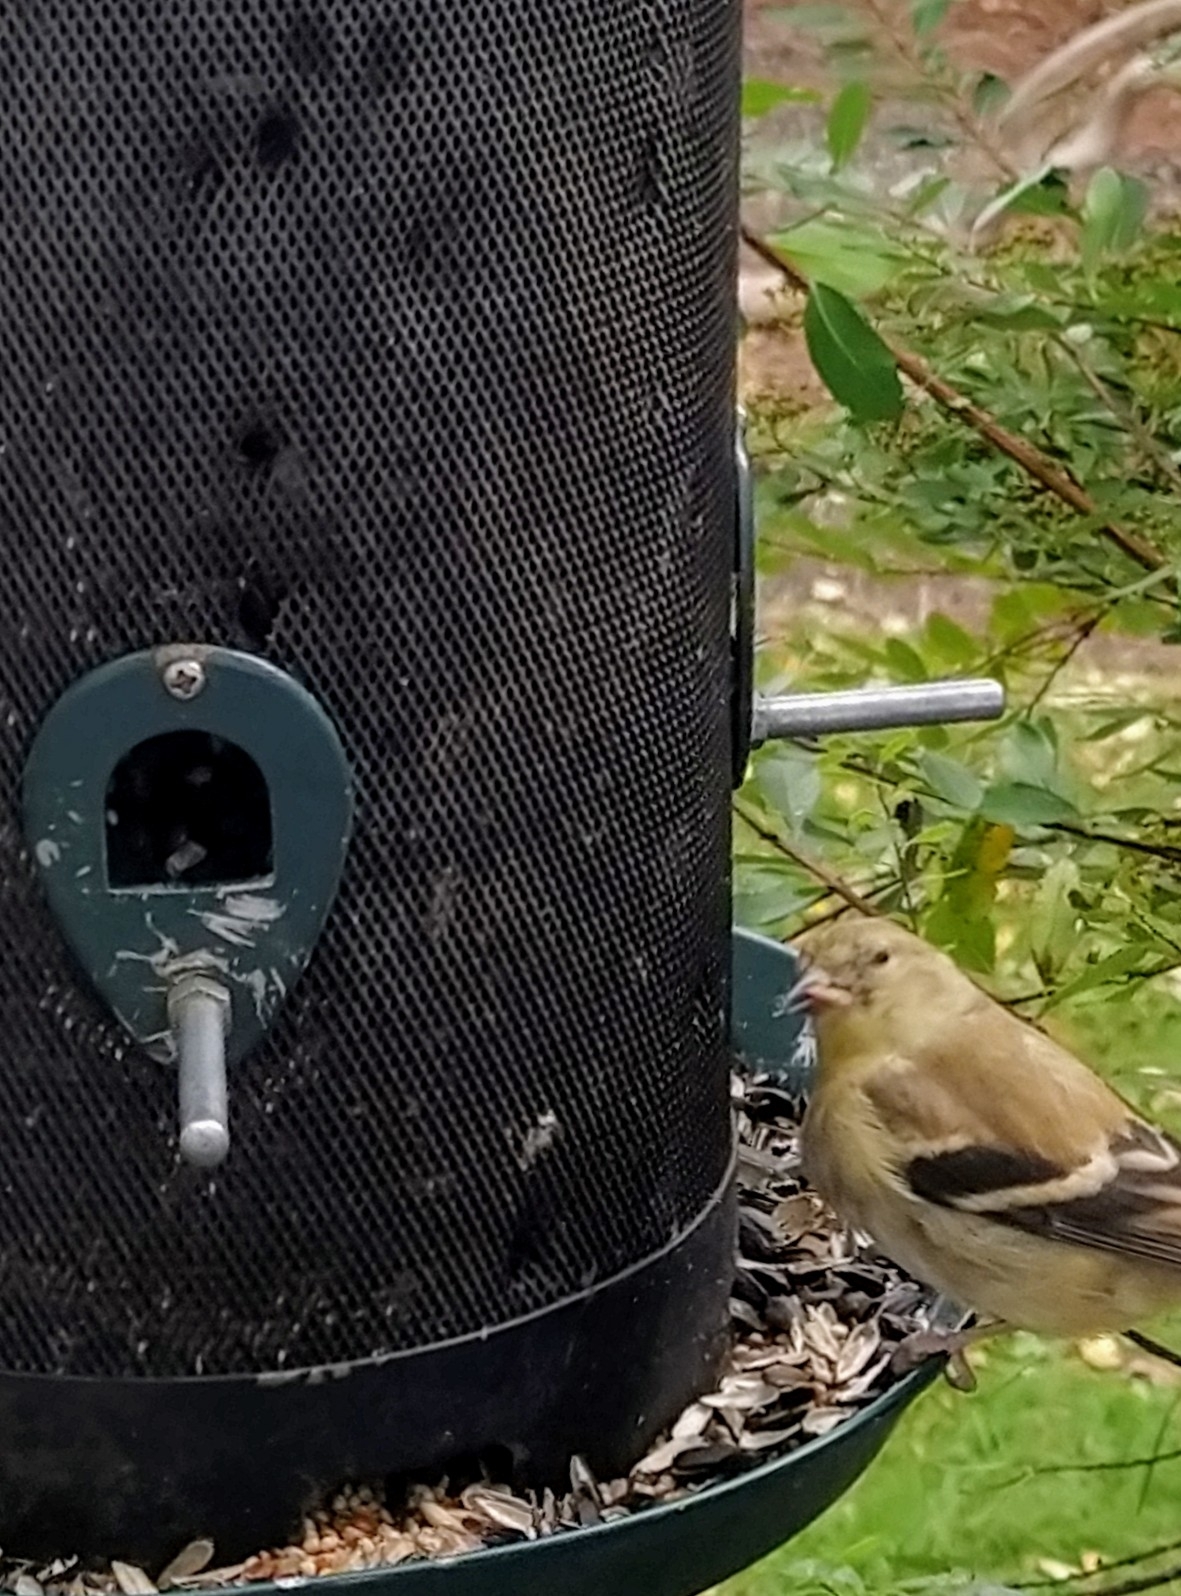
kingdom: Animalia
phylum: Chordata
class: Aves
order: Passeriformes
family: Fringillidae
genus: Spinus
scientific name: Spinus tristis
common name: American goldfinch
